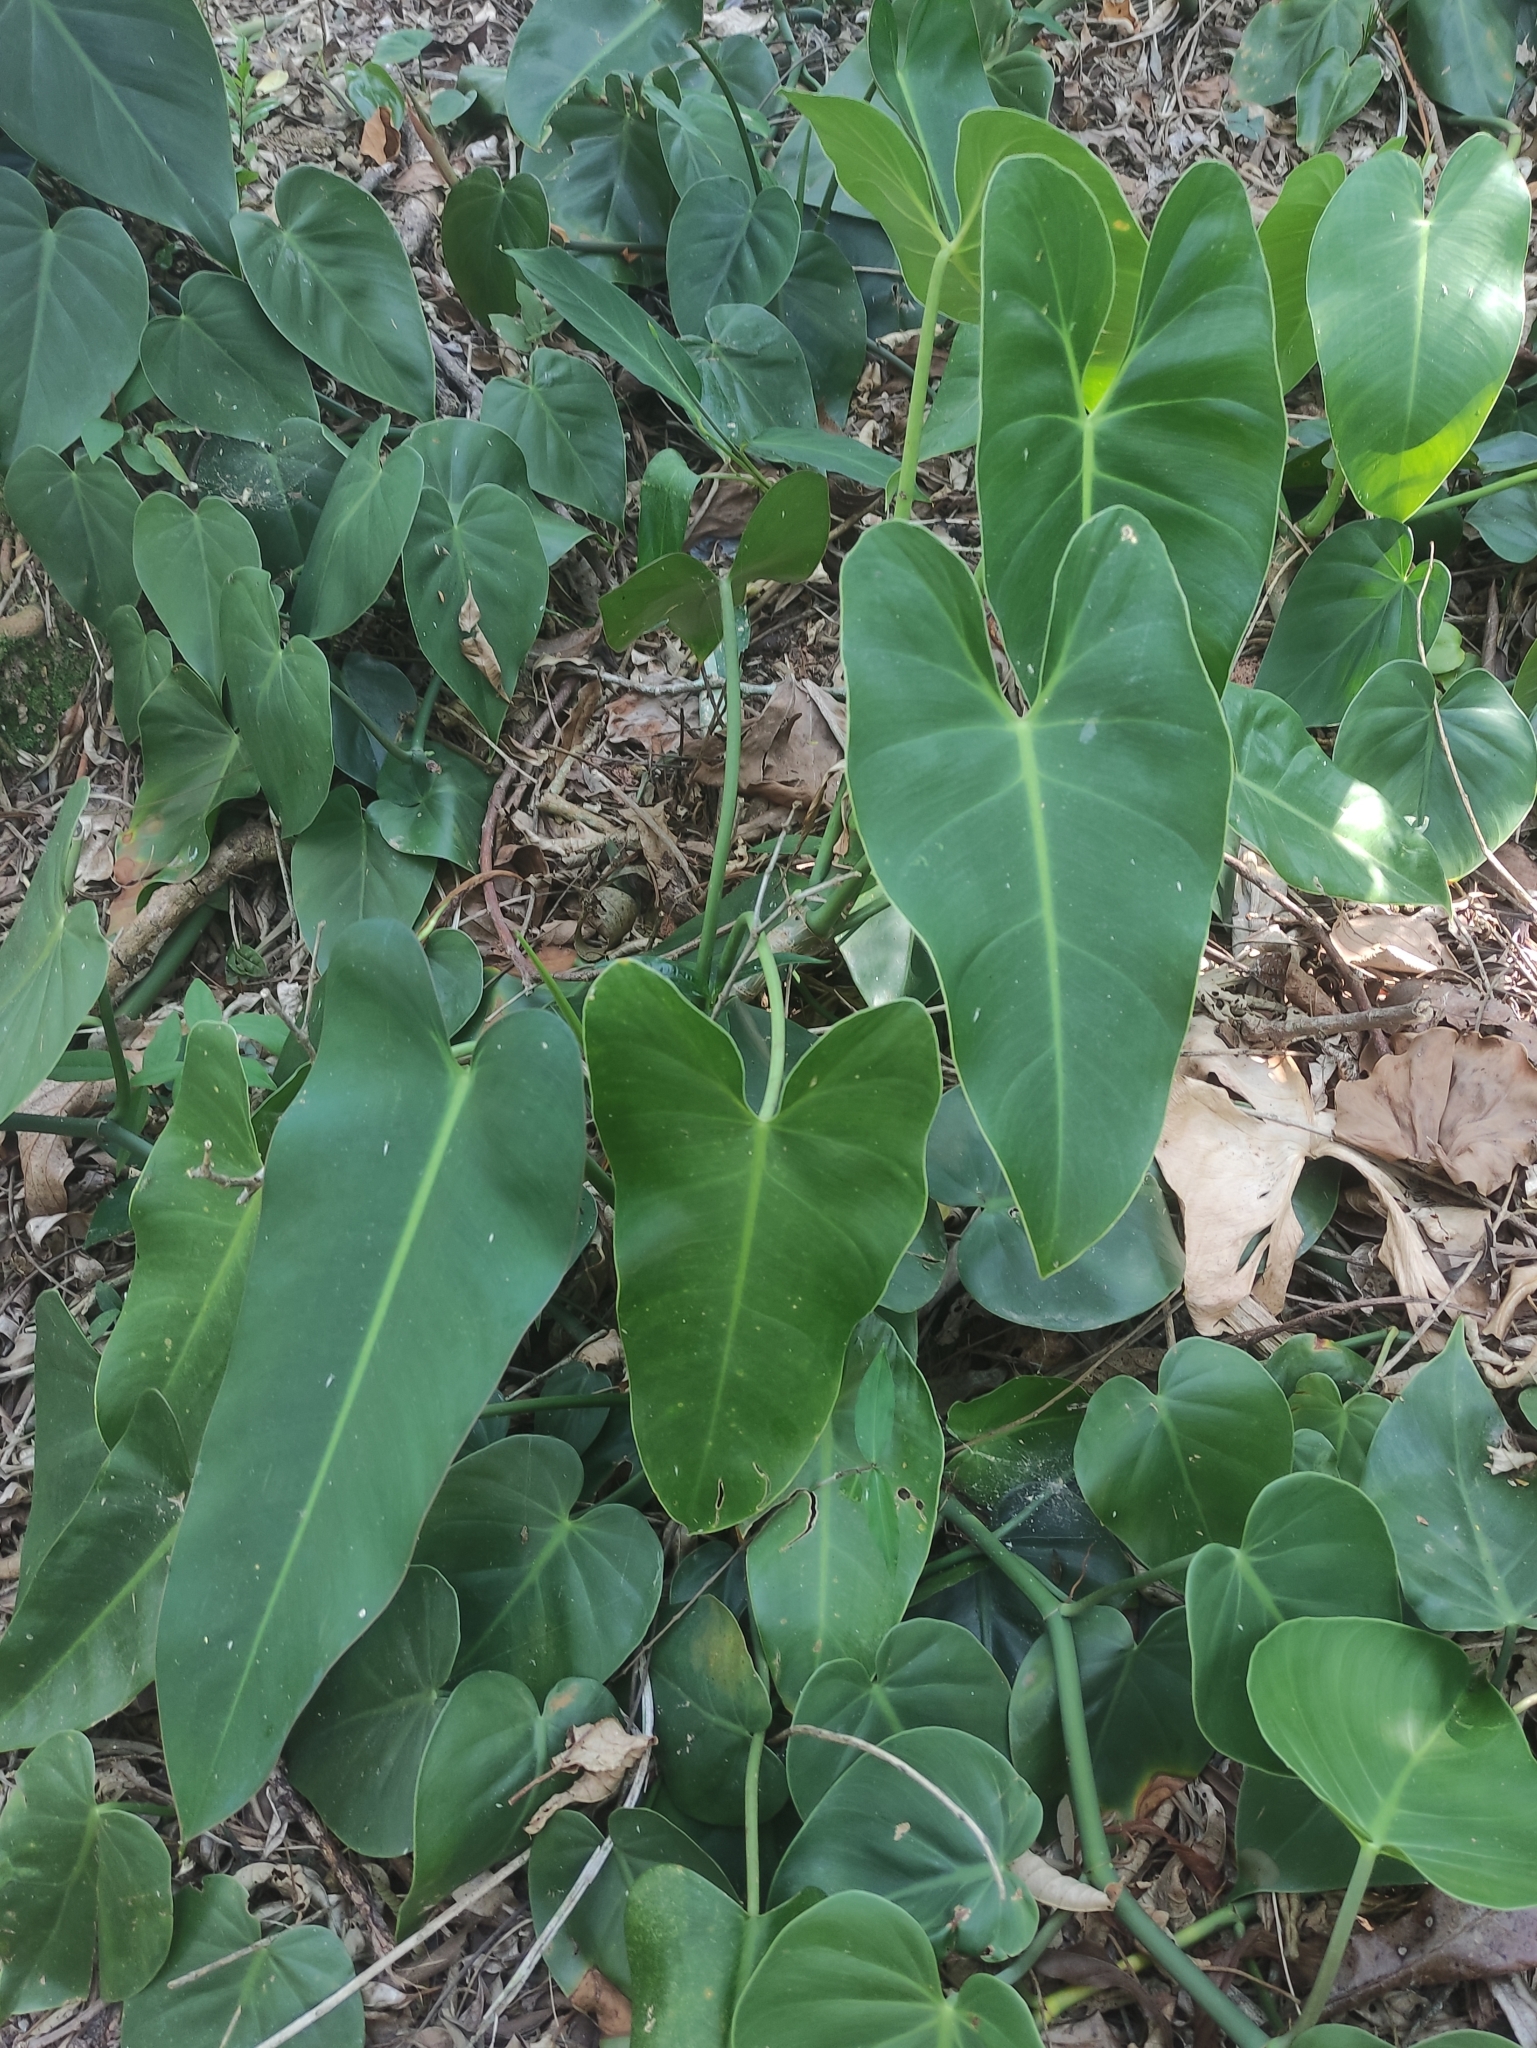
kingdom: Plantae
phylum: Tracheophyta
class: Liliopsida
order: Alismatales
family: Araceae
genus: Philodendron
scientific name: Philodendron curvilobum
